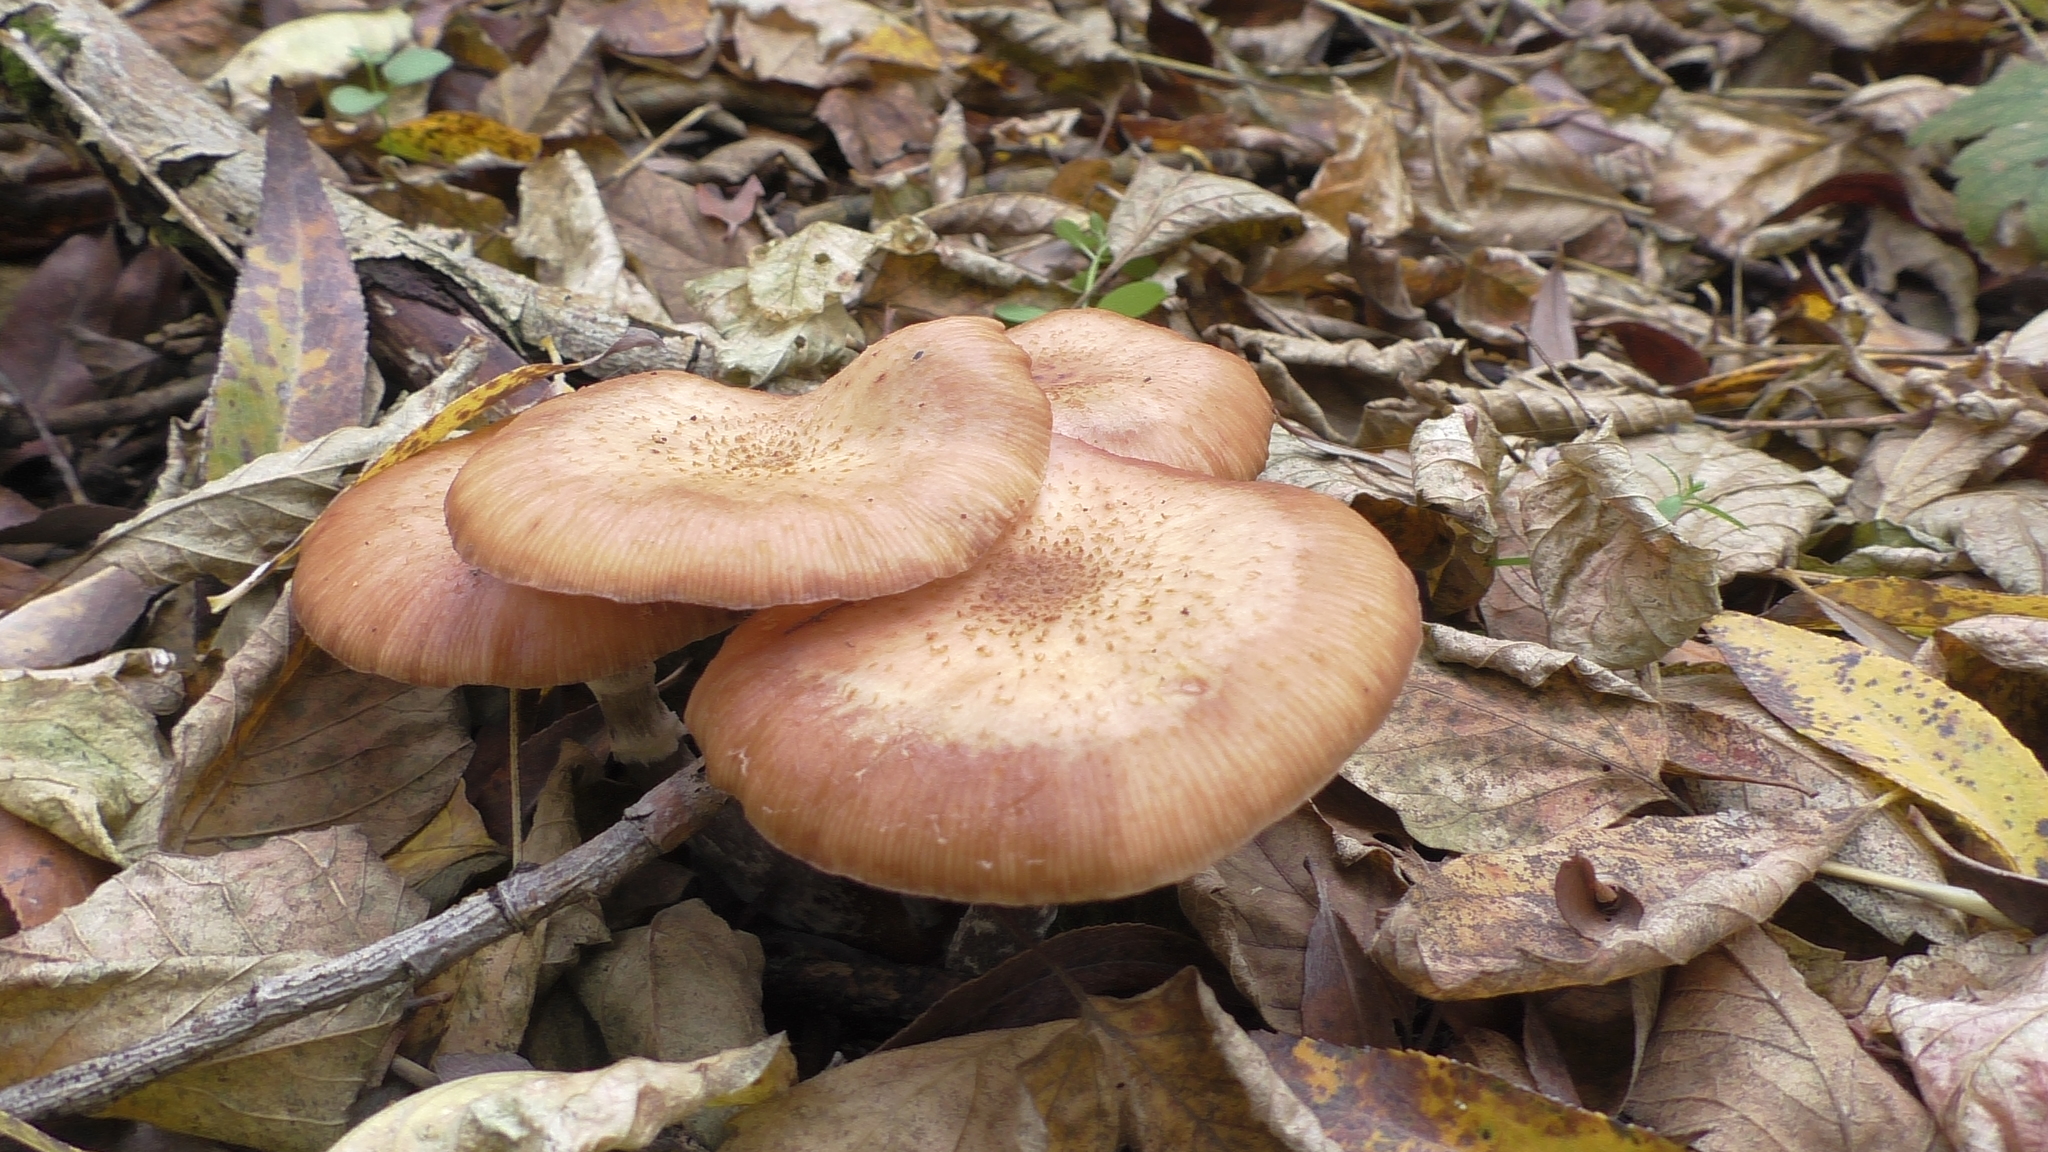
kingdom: Fungi
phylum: Basidiomycota
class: Agaricomycetes
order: Agaricales
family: Physalacriaceae
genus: Desarmillaria
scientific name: Desarmillaria tabescens
